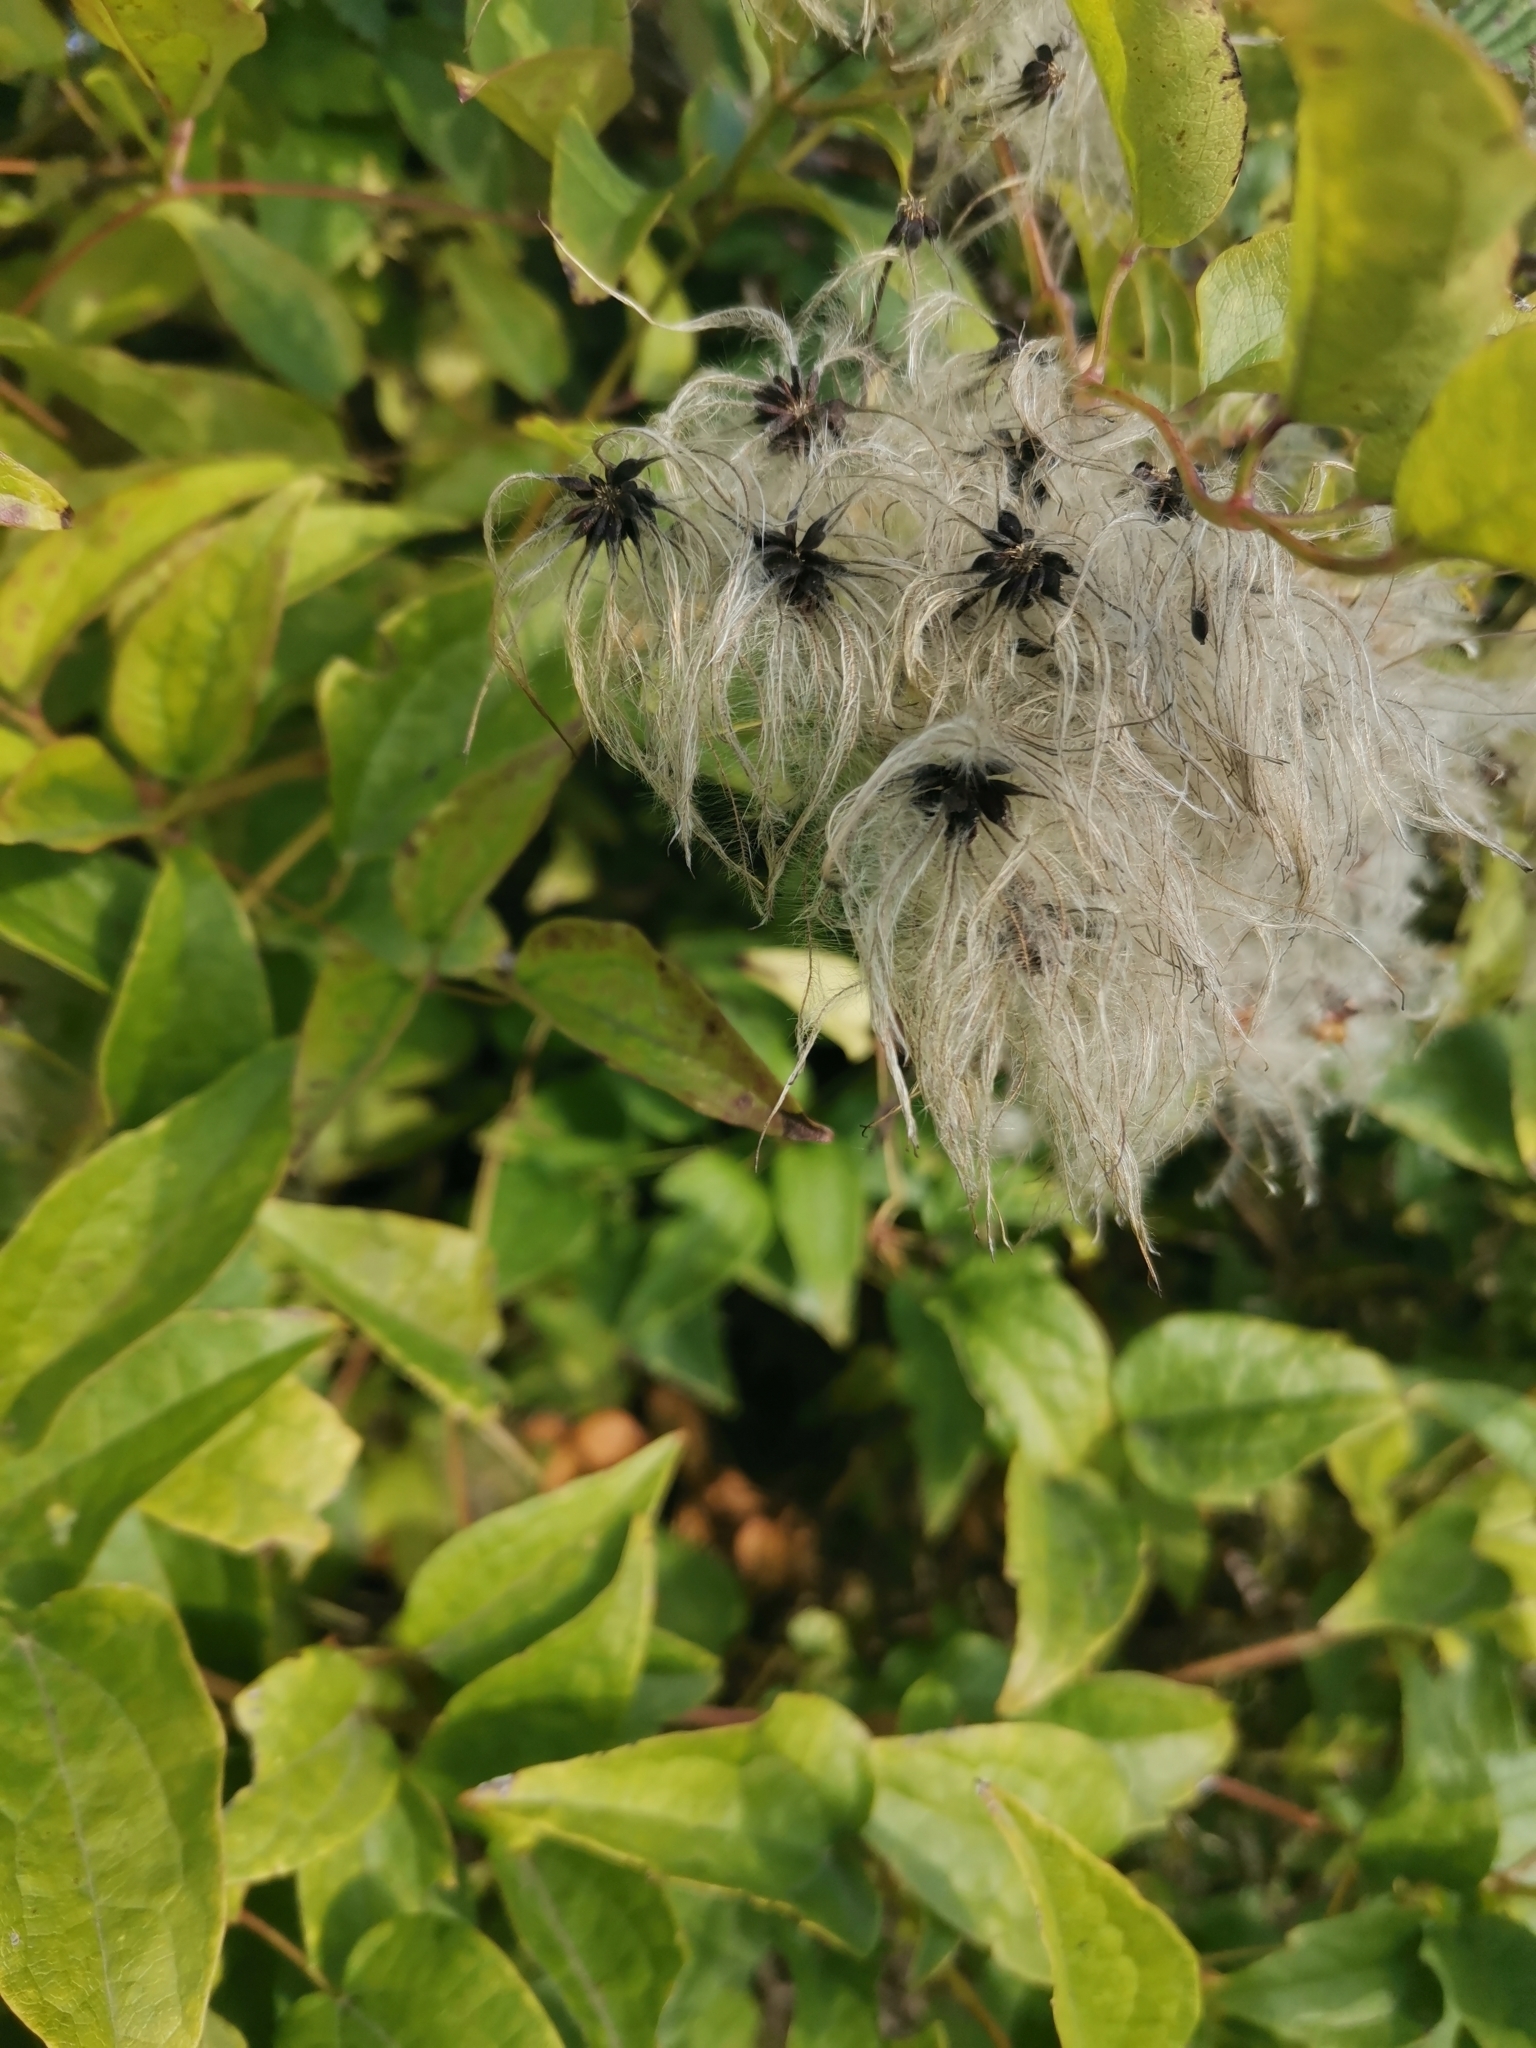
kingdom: Plantae
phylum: Tracheophyta
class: Magnoliopsida
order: Ranunculales
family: Ranunculaceae
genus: Clematis
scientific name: Clematis vitalba
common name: Evergreen clematis
